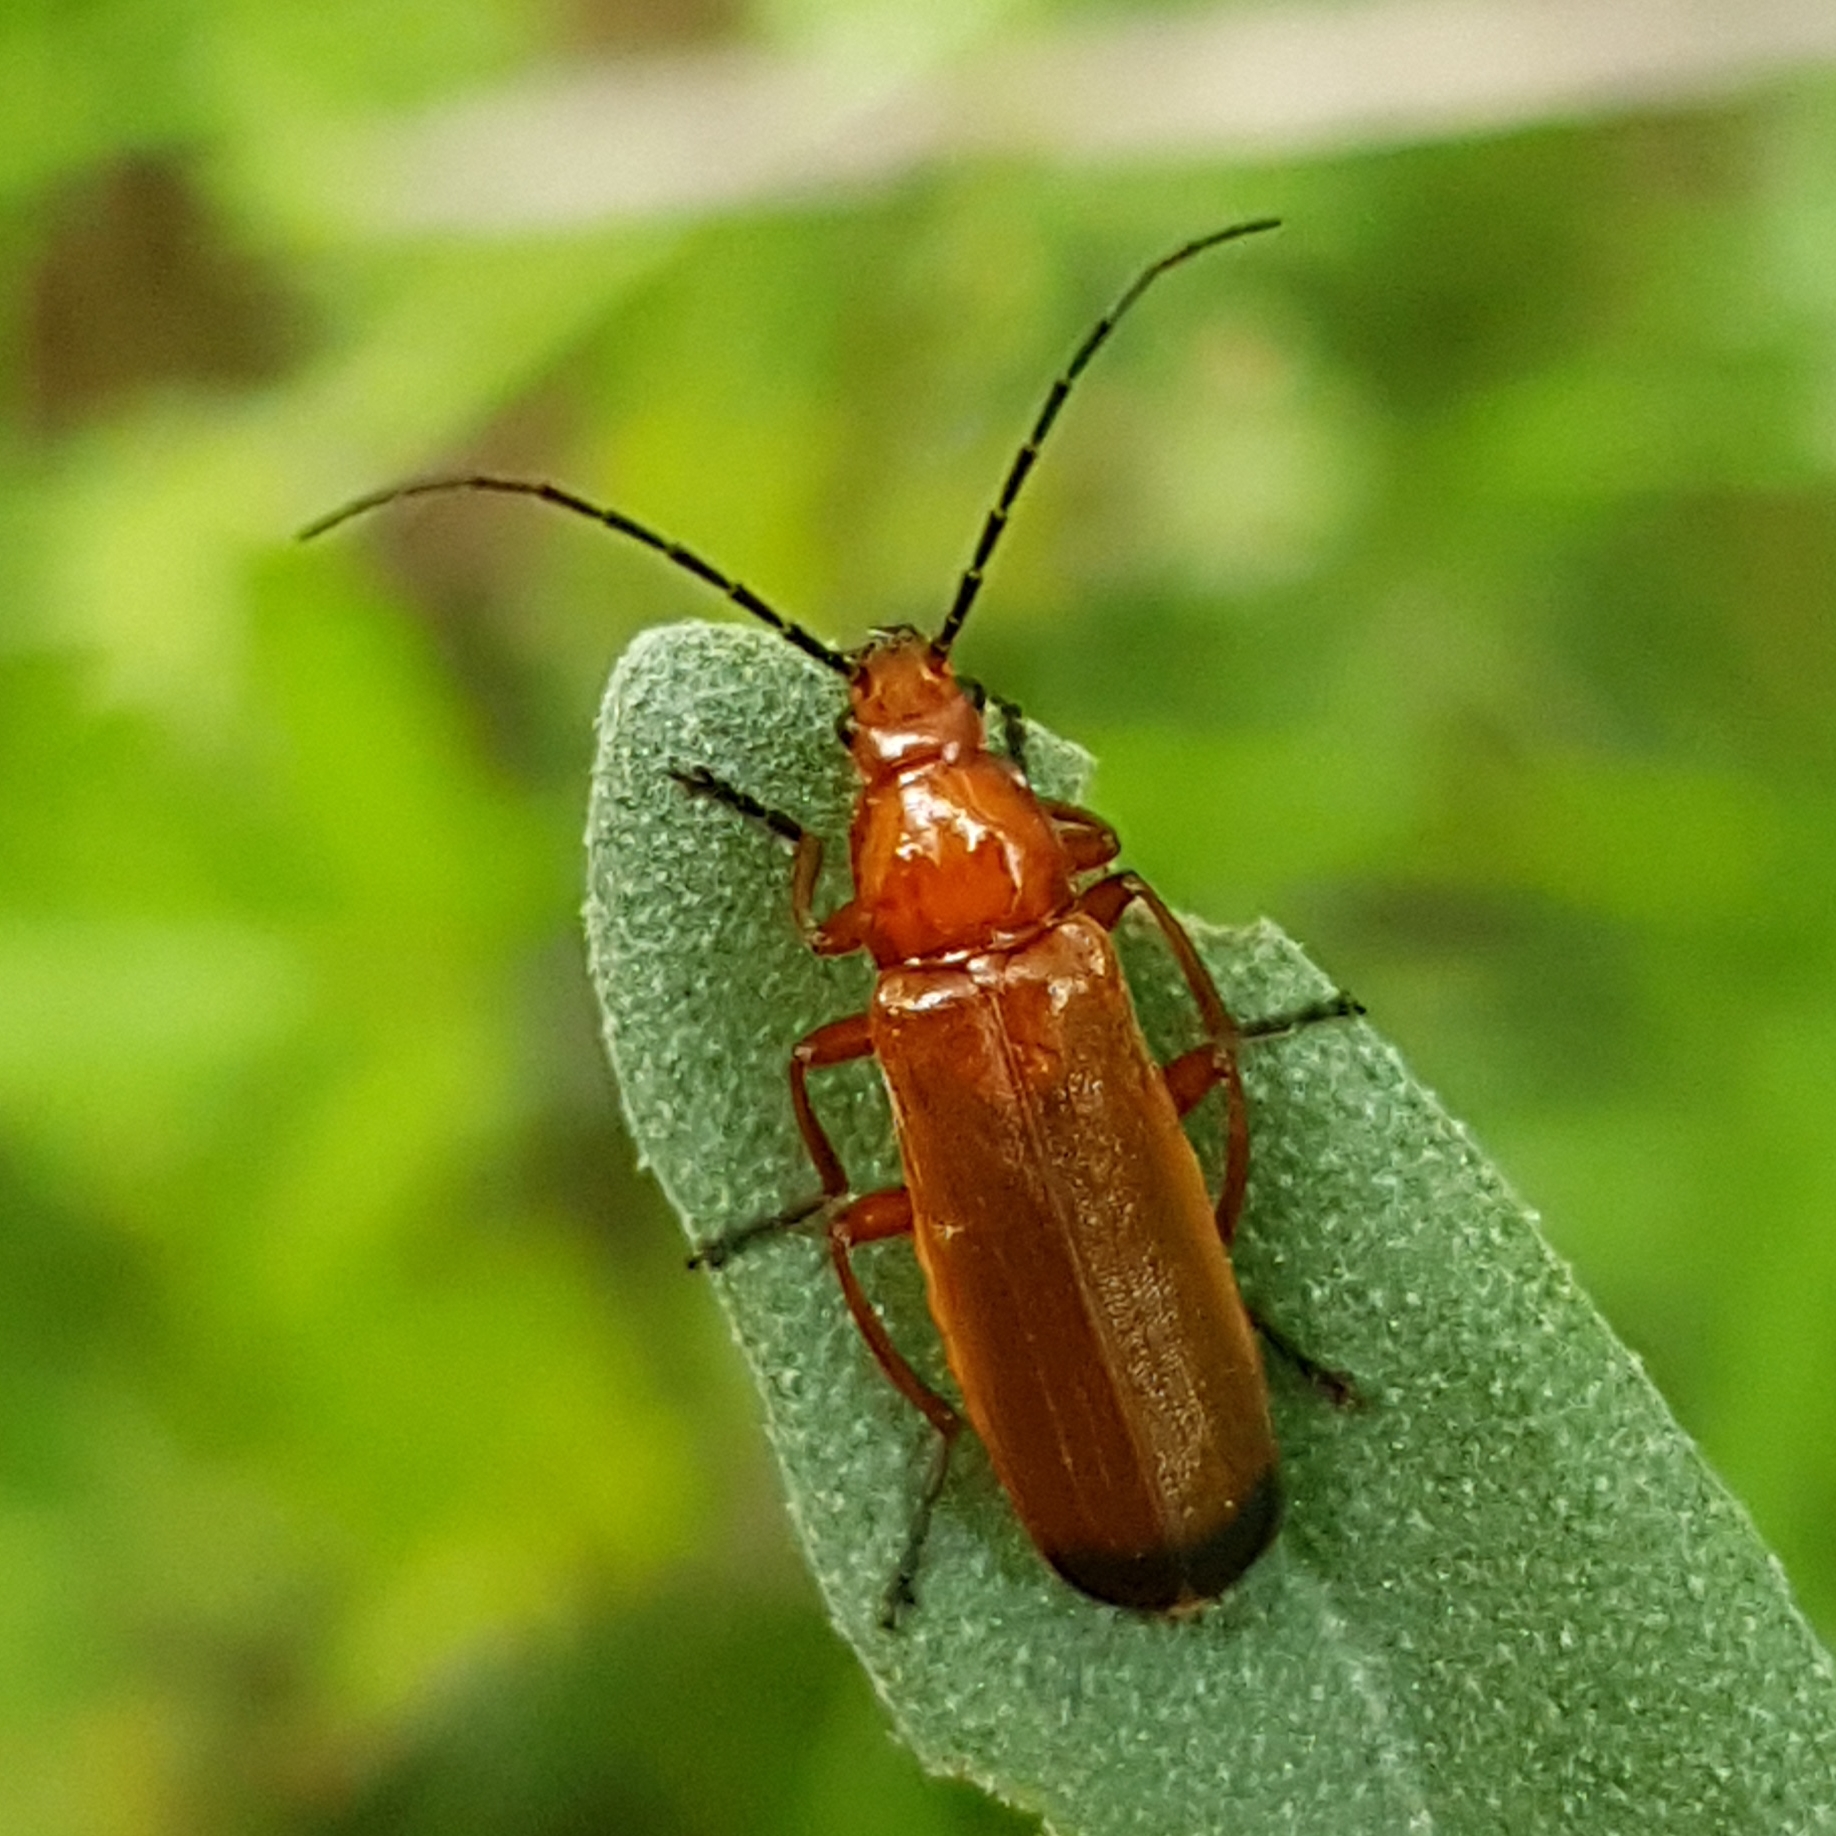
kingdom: Animalia
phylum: Arthropoda
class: Insecta
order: Coleoptera
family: Cantharidae
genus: Rhagonycha
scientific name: Rhagonycha fulva
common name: Common red soldier beetle
